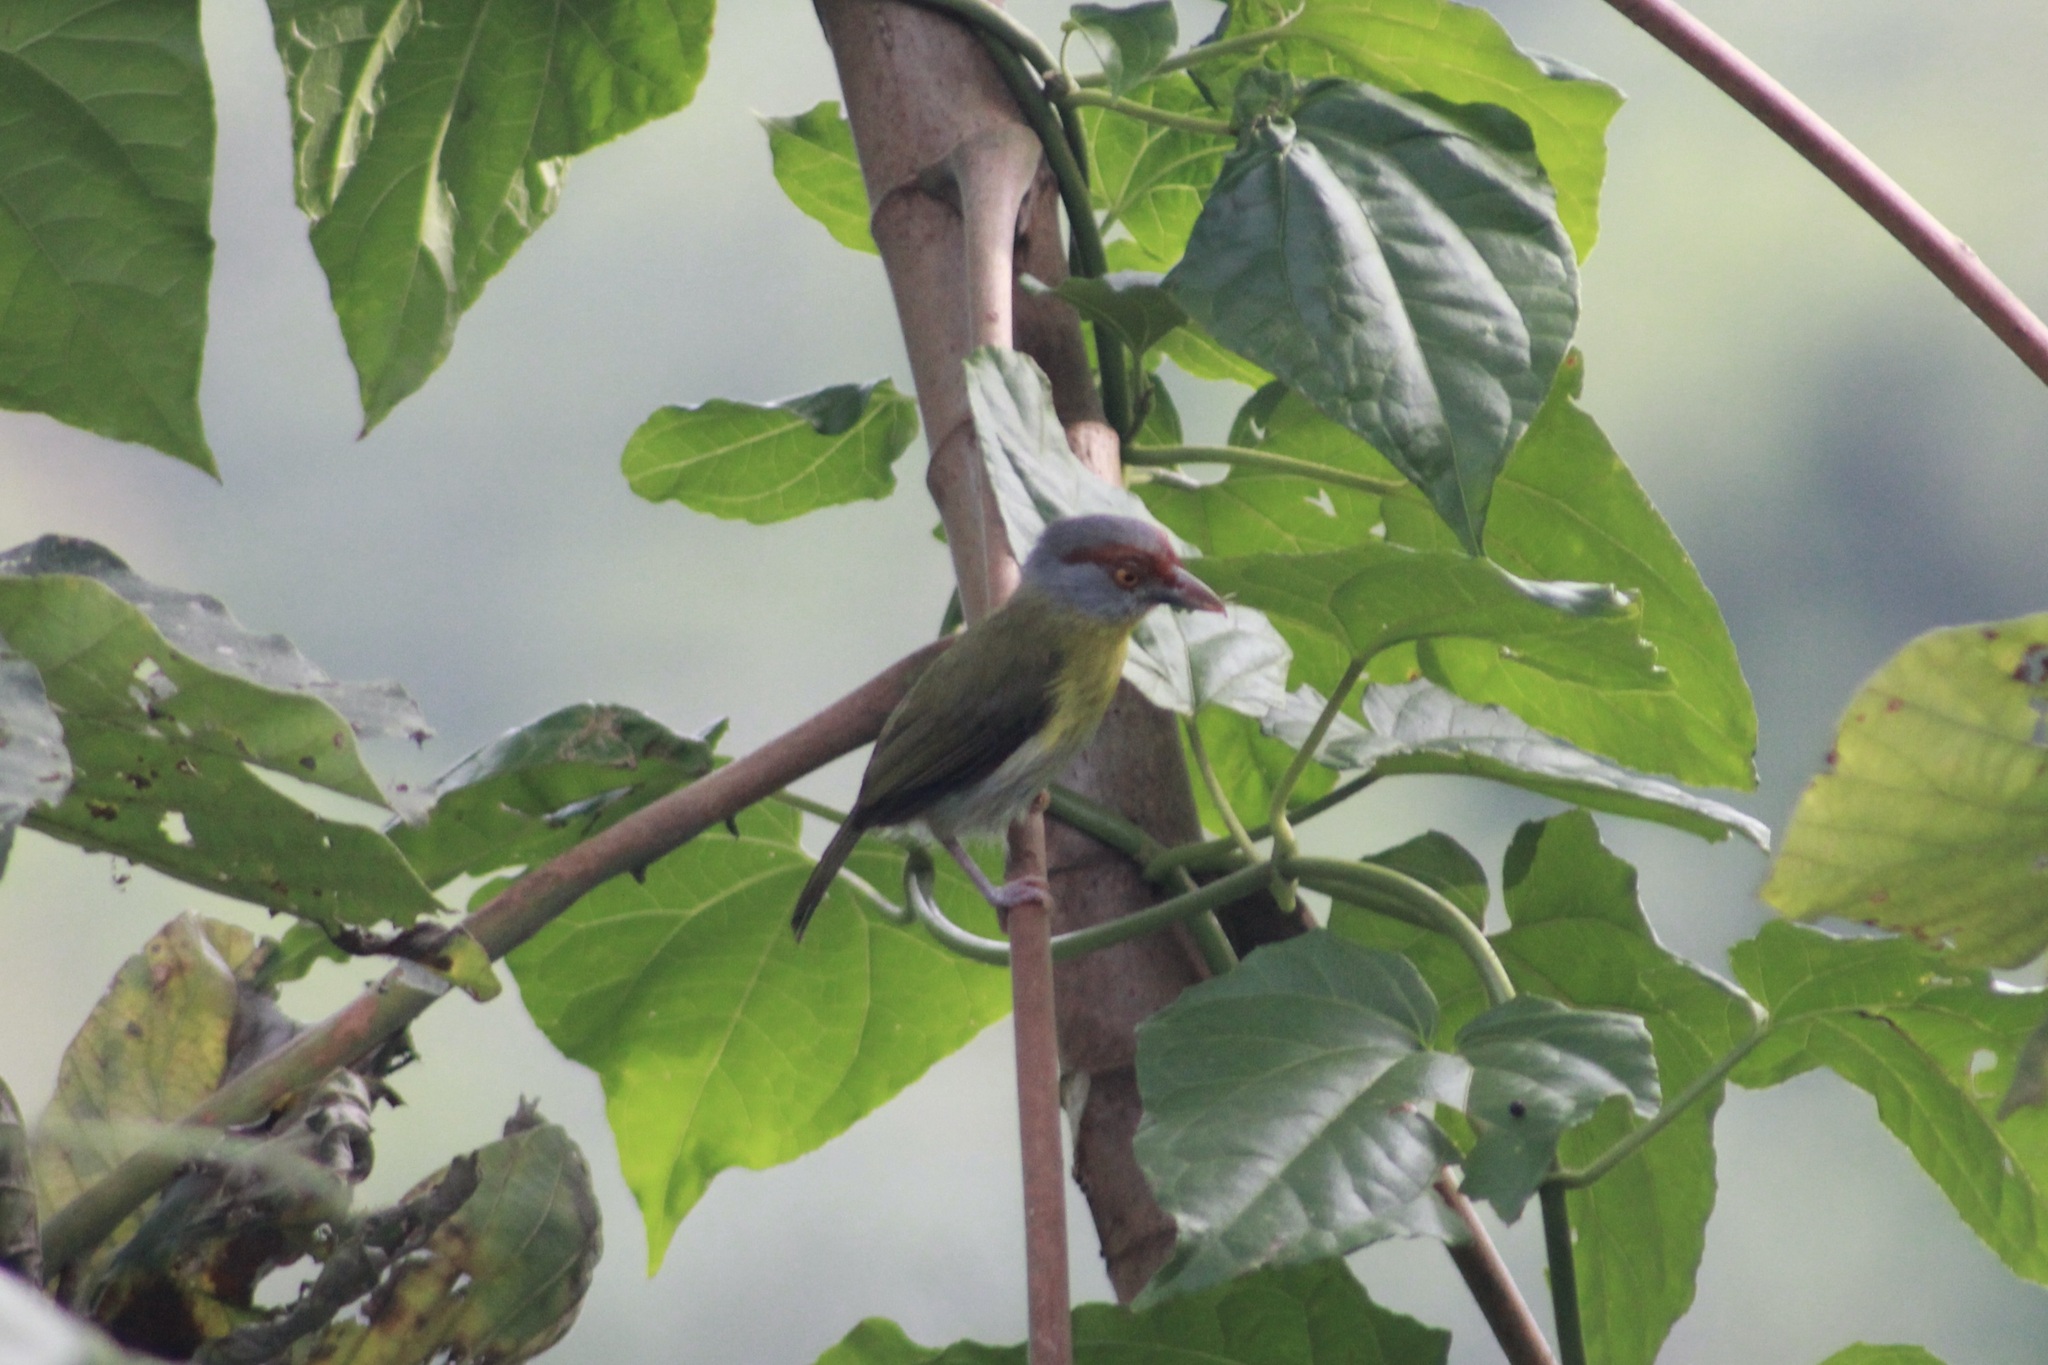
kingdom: Animalia
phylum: Chordata
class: Aves
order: Passeriformes
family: Vireonidae
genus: Cyclarhis
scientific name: Cyclarhis gujanensis
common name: Rufous-browed peppershrike
